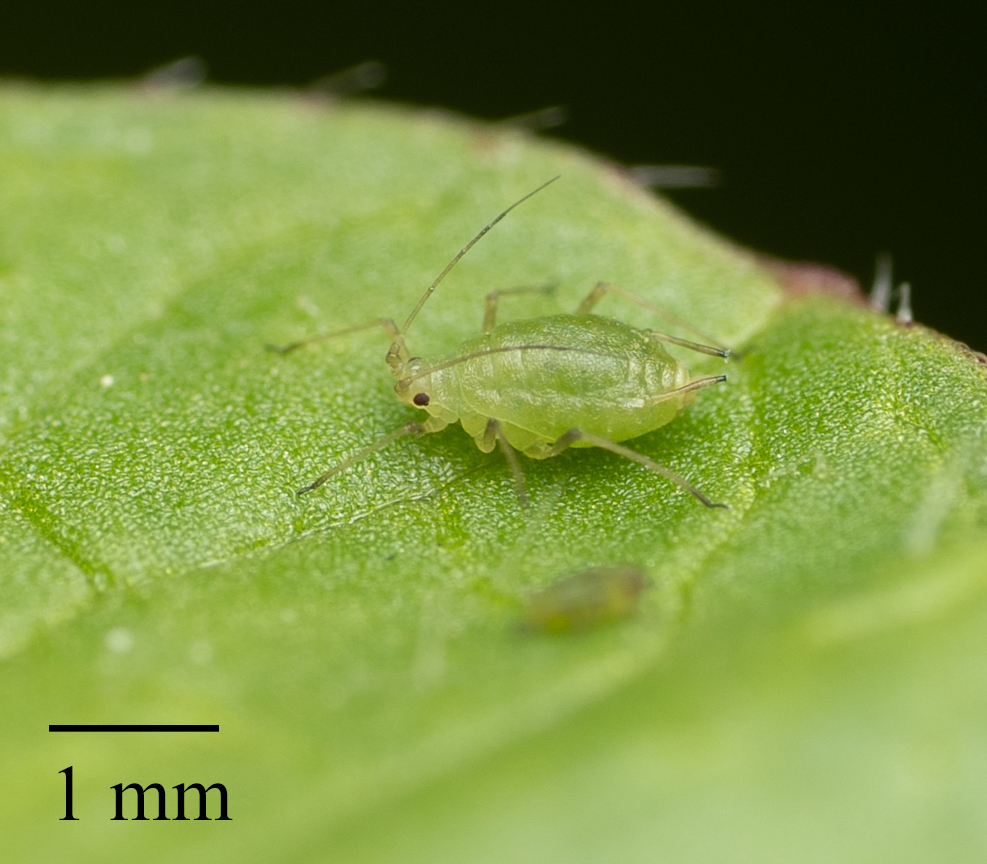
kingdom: Animalia
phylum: Arthropoda
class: Insecta
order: Hemiptera
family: Aphididae
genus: Myzus
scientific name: Myzus persicae
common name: Green peach aphid
